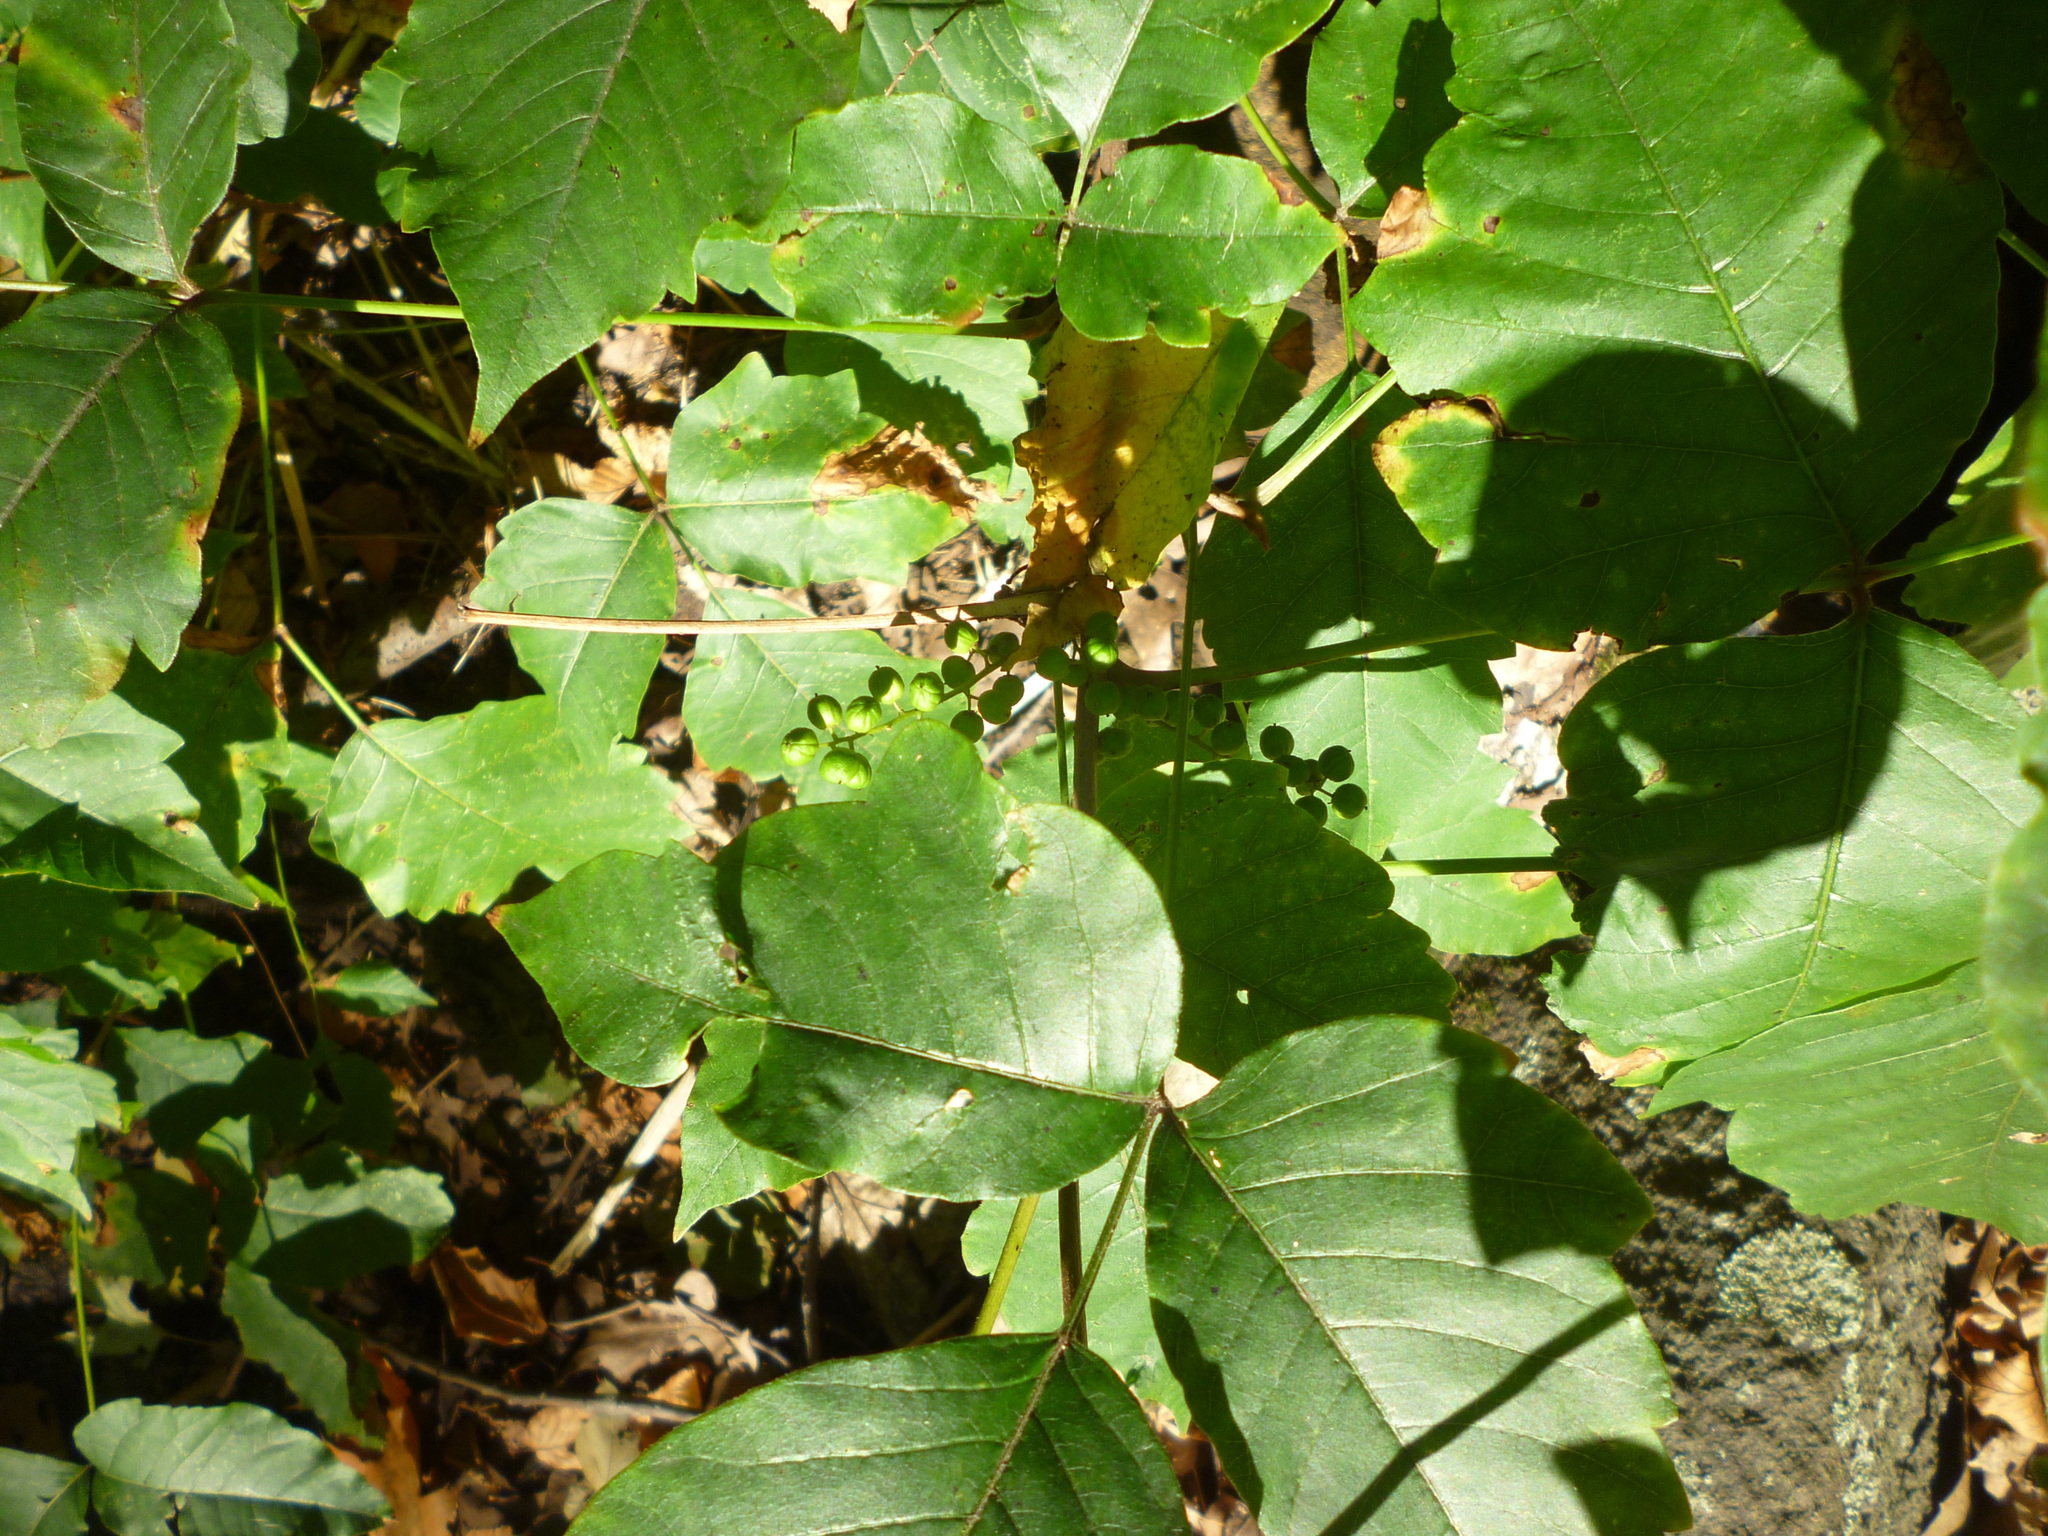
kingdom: Plantae
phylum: Tracheophyta
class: Magnoliopsida
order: Sapindales
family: Anacardiaceae
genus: Toxicodendron
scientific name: Toxicodendron radicans
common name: Poison ivy
